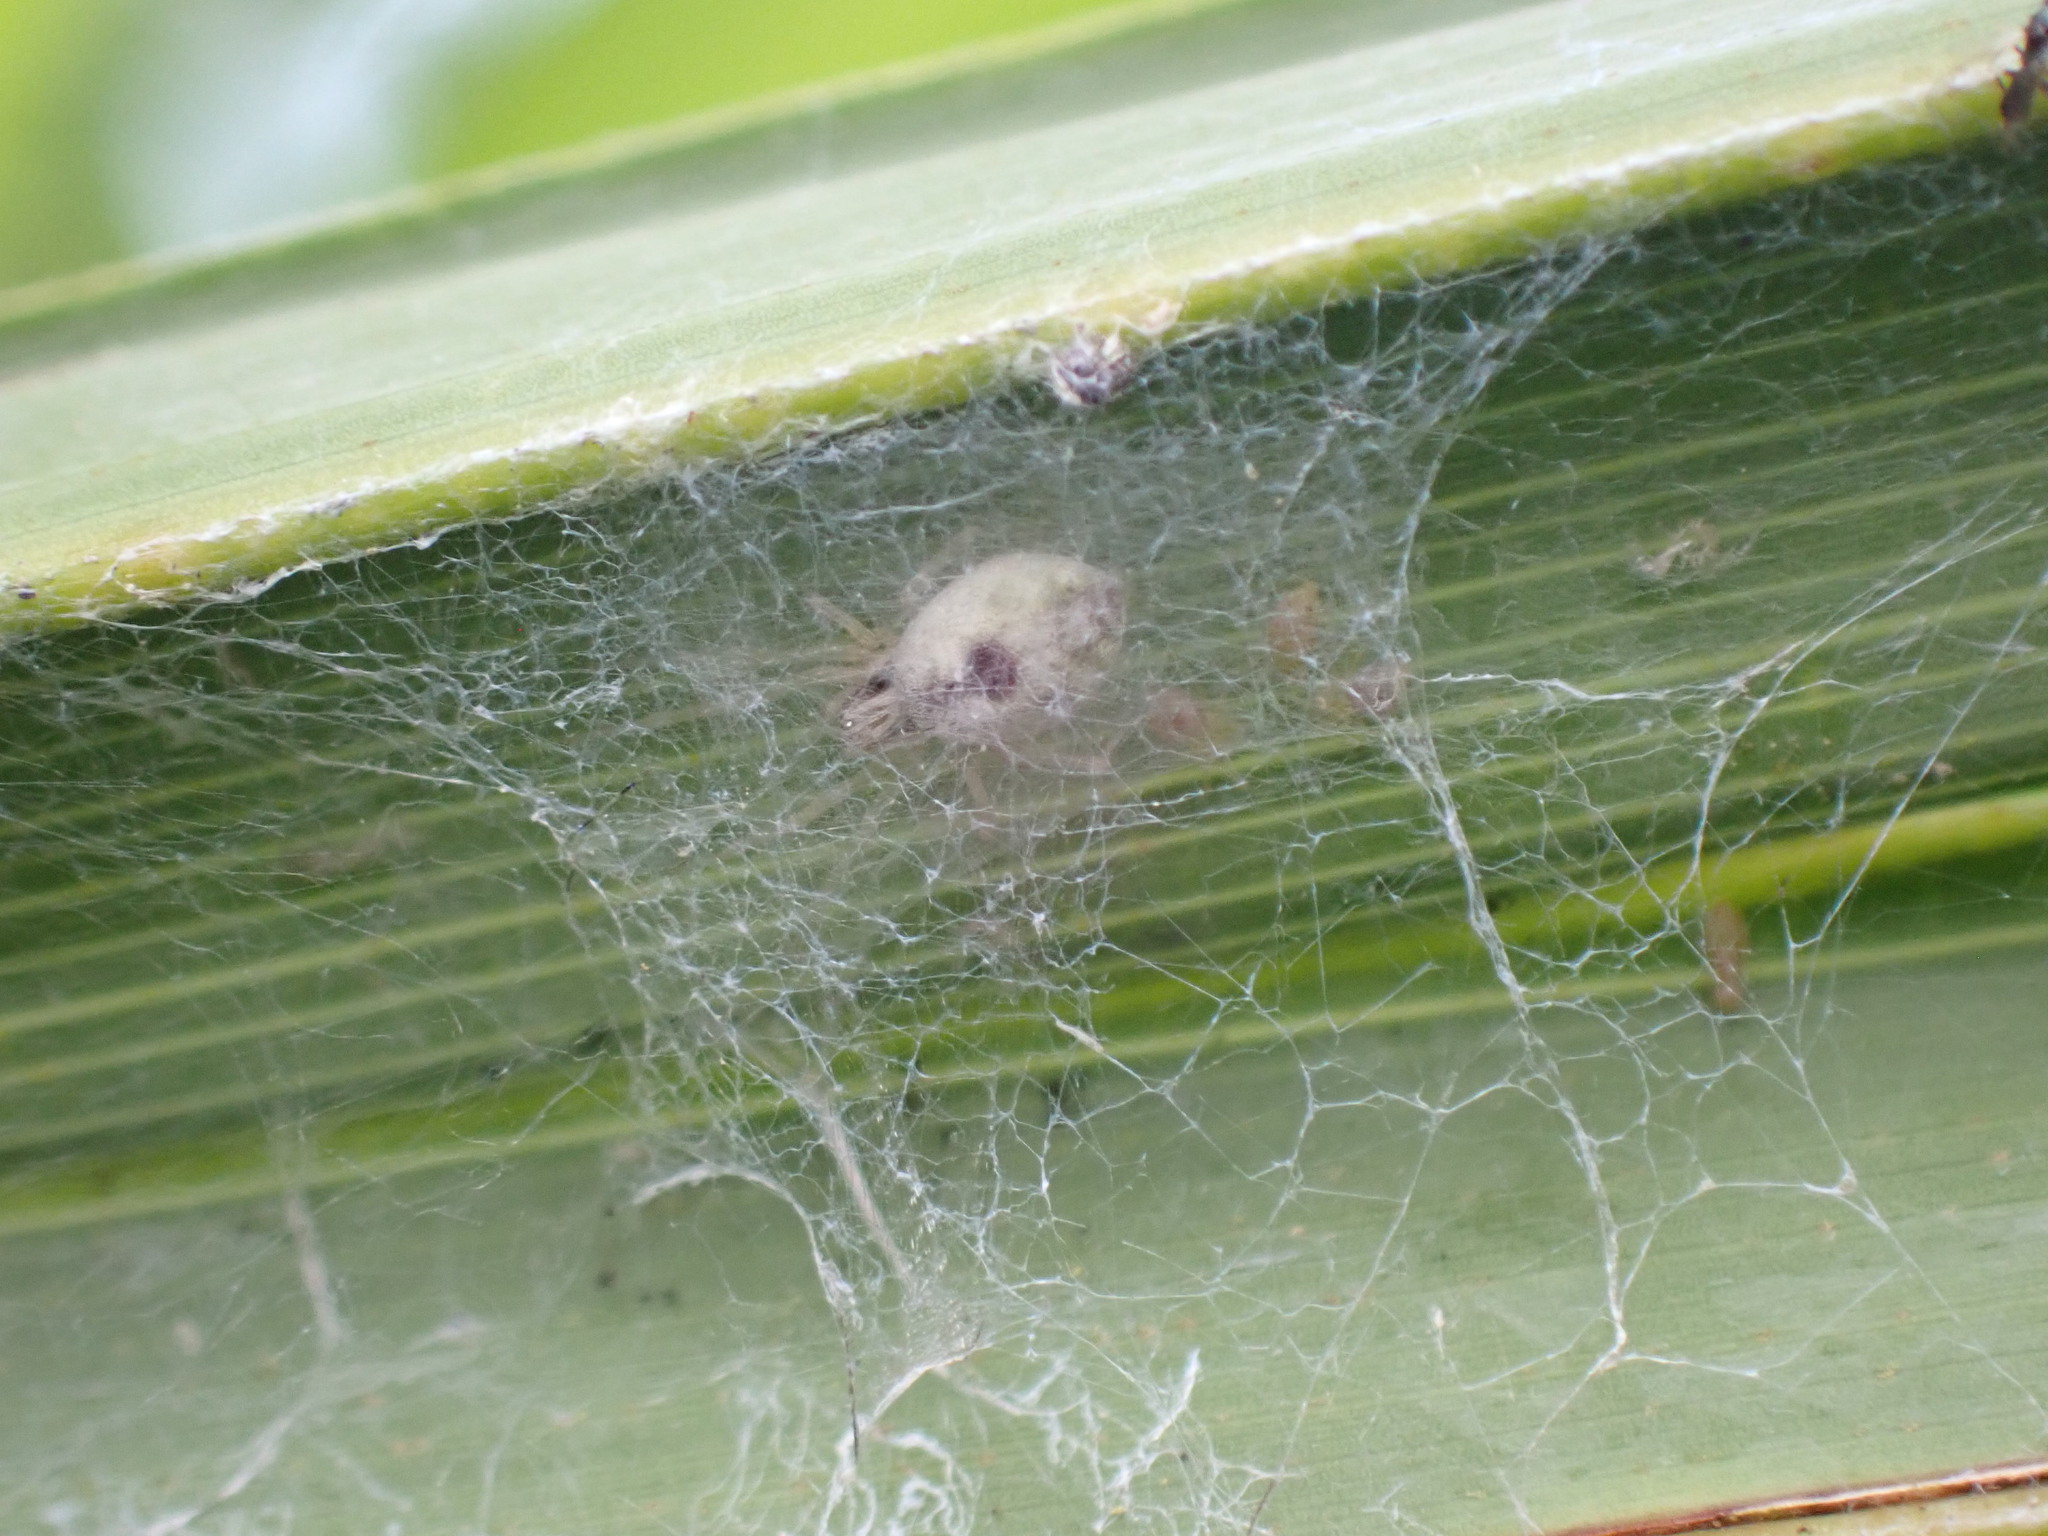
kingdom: Animalia
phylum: Arthropoda
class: Arachnida
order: Araneae
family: Dictynidae
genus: Nigma
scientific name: Nigma puella
